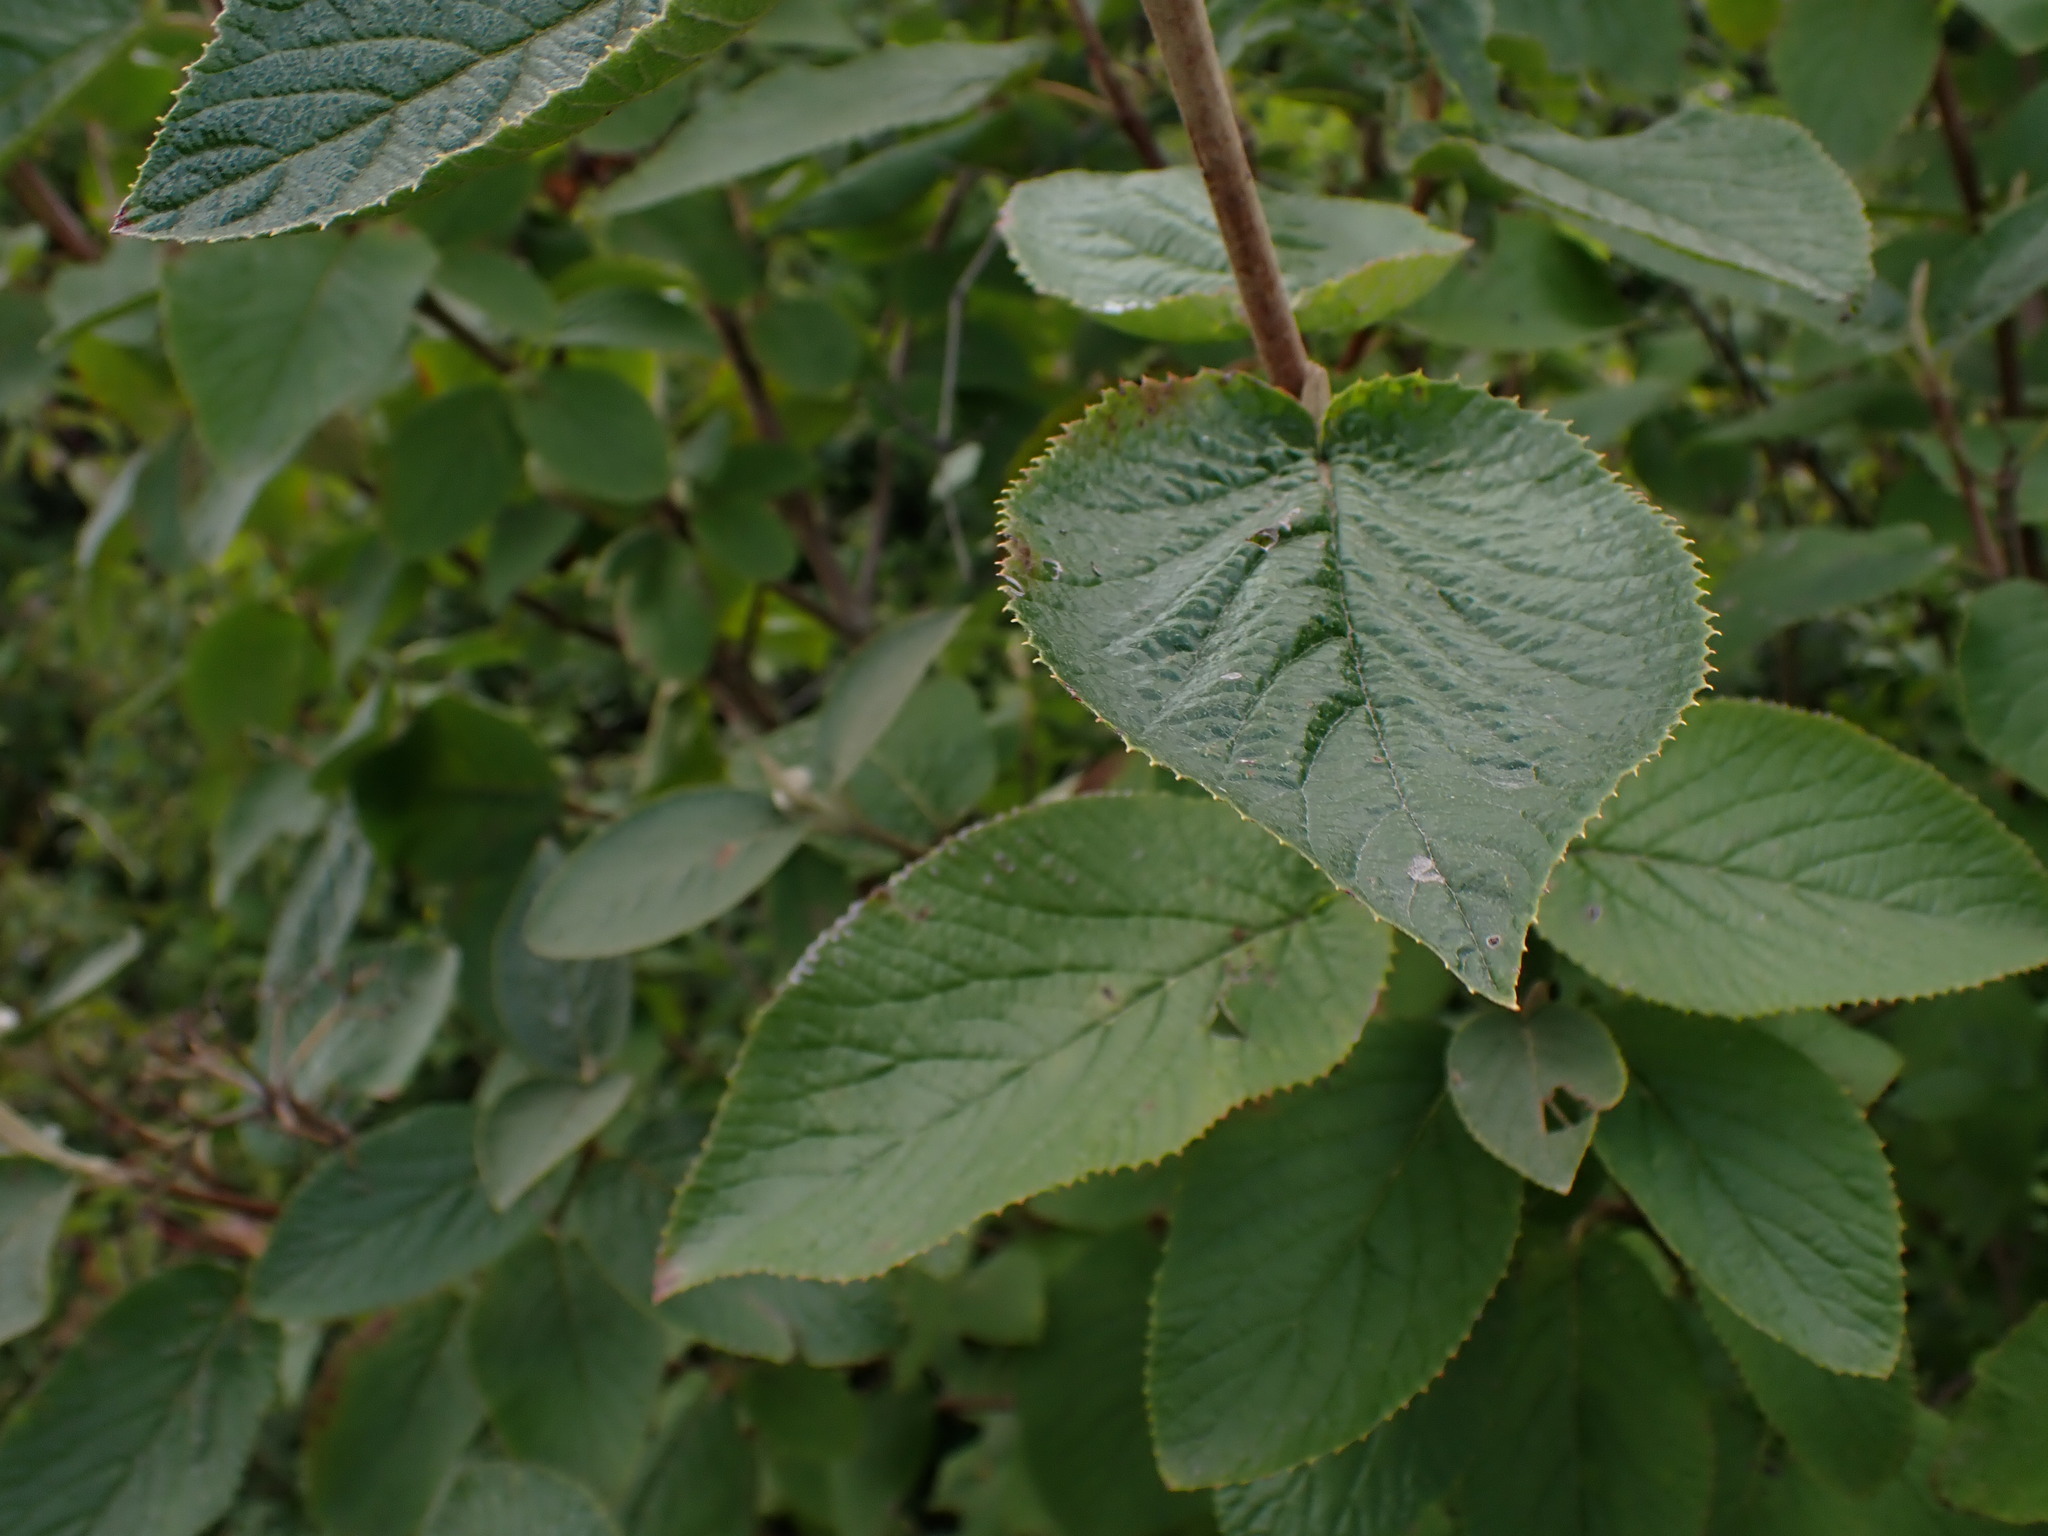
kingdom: Plantae
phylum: Tracheophyta
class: Magnoliopsida
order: Dipsacales
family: Viburnaceae
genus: Viburnum
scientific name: Viburnum lantana
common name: Wayfaring tree
